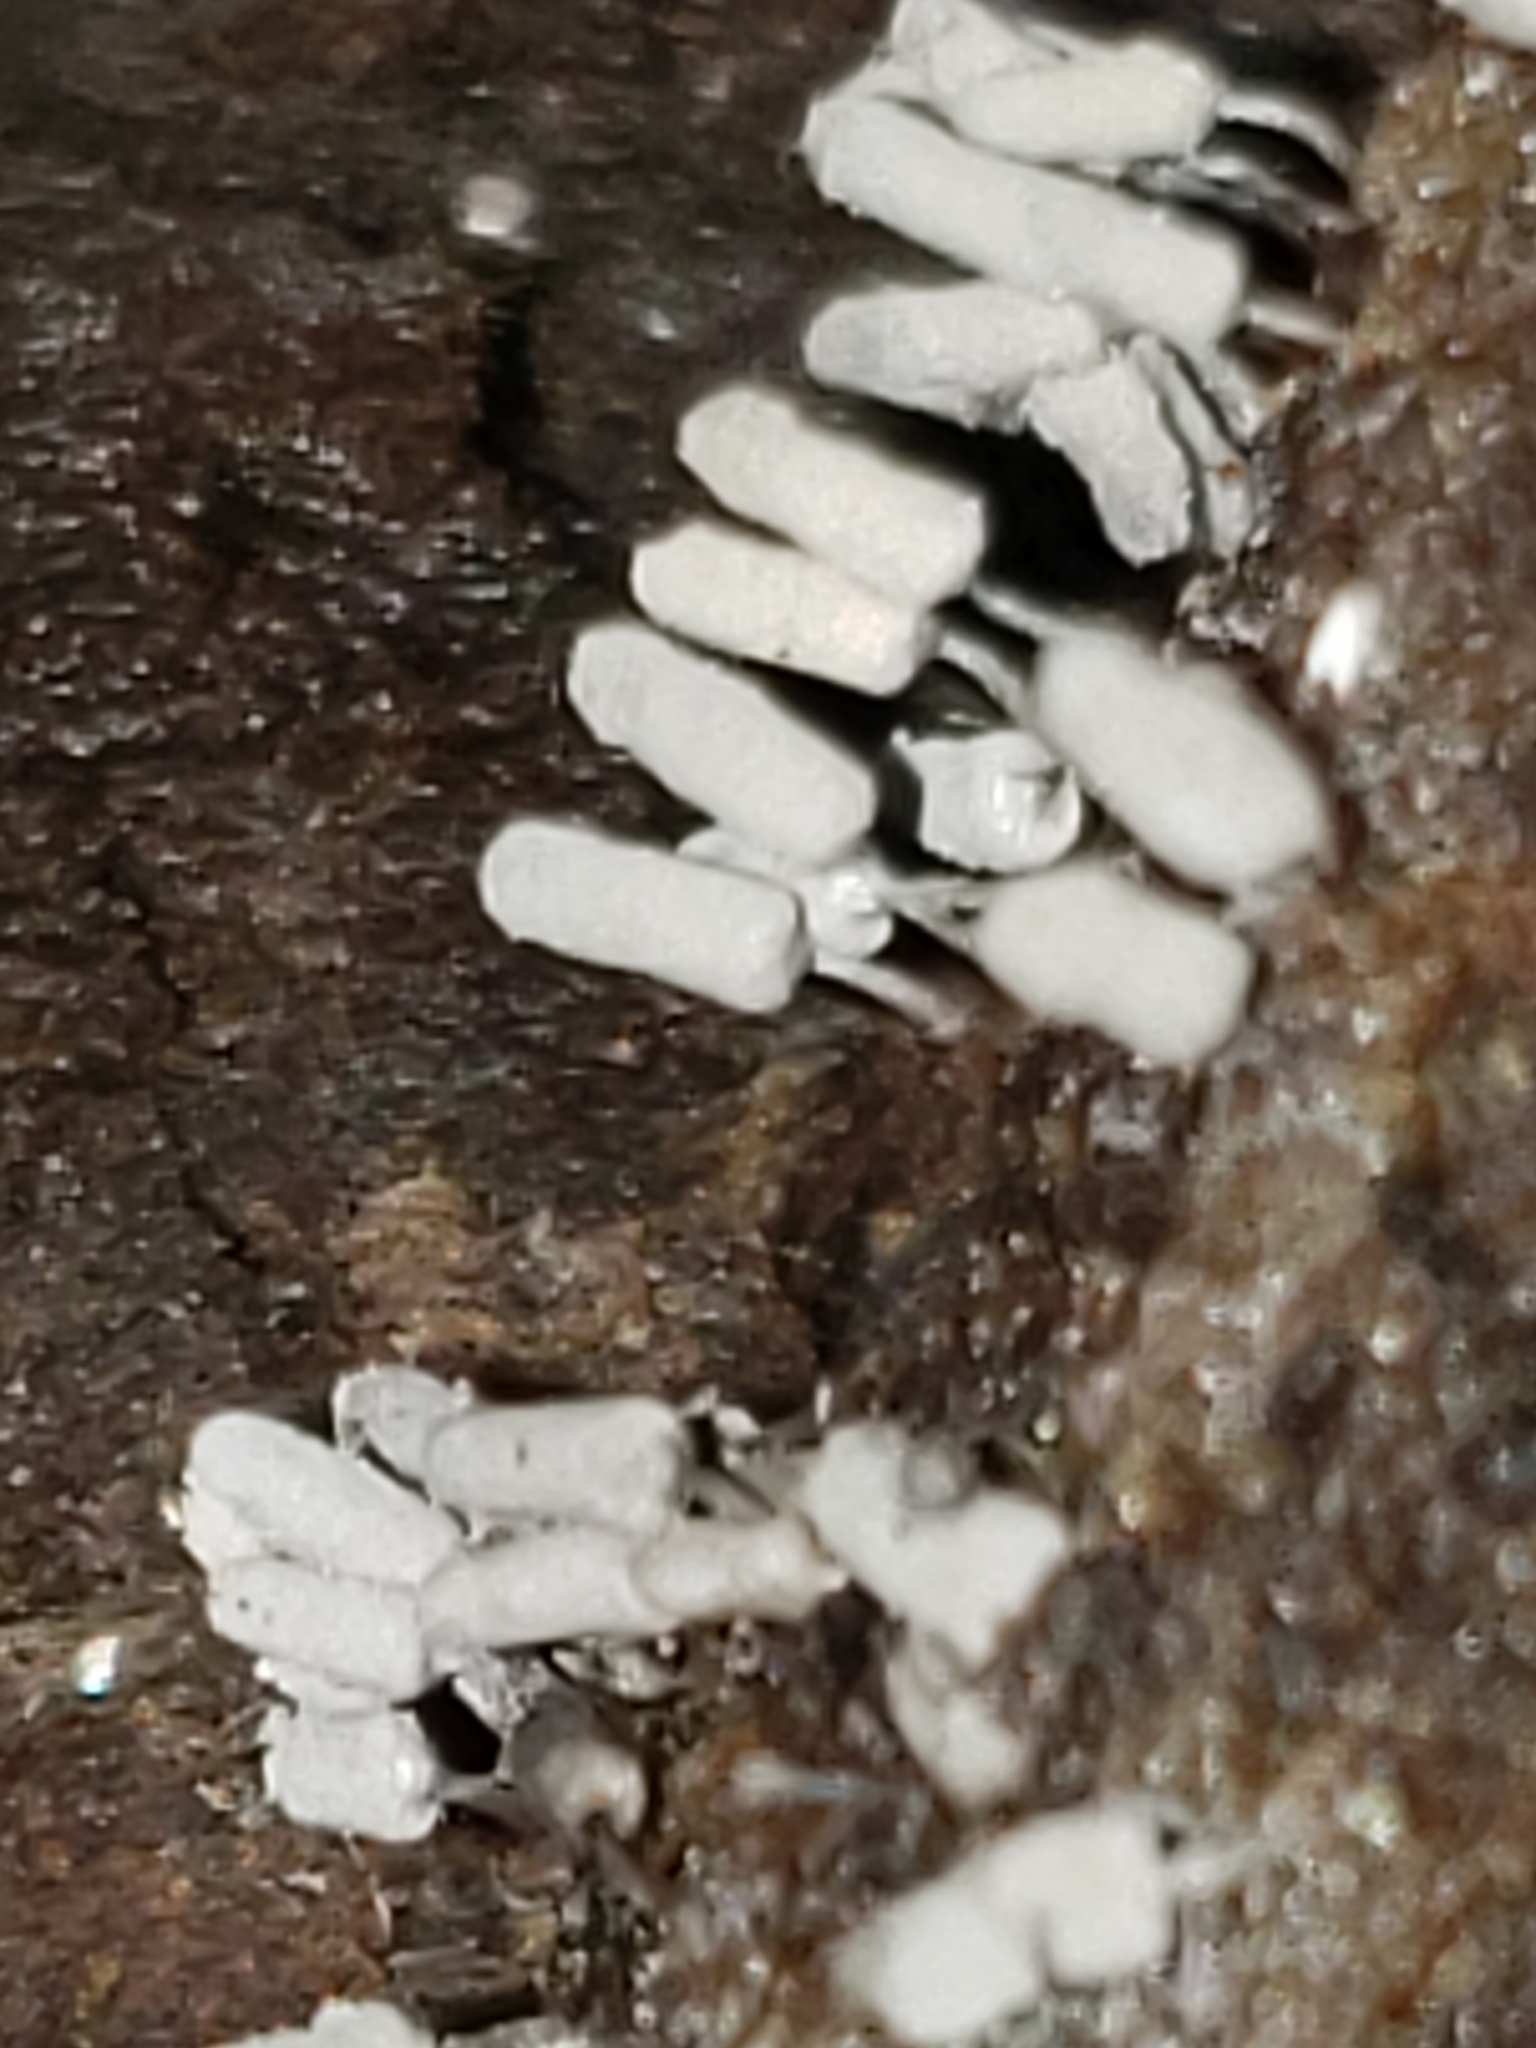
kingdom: Protozoa
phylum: Mycetozoa
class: Myxomycetes
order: Trichiales
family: Arcyriaceae
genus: Arcyria
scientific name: Arcyria cinerea
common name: White carnival candy slime mold
